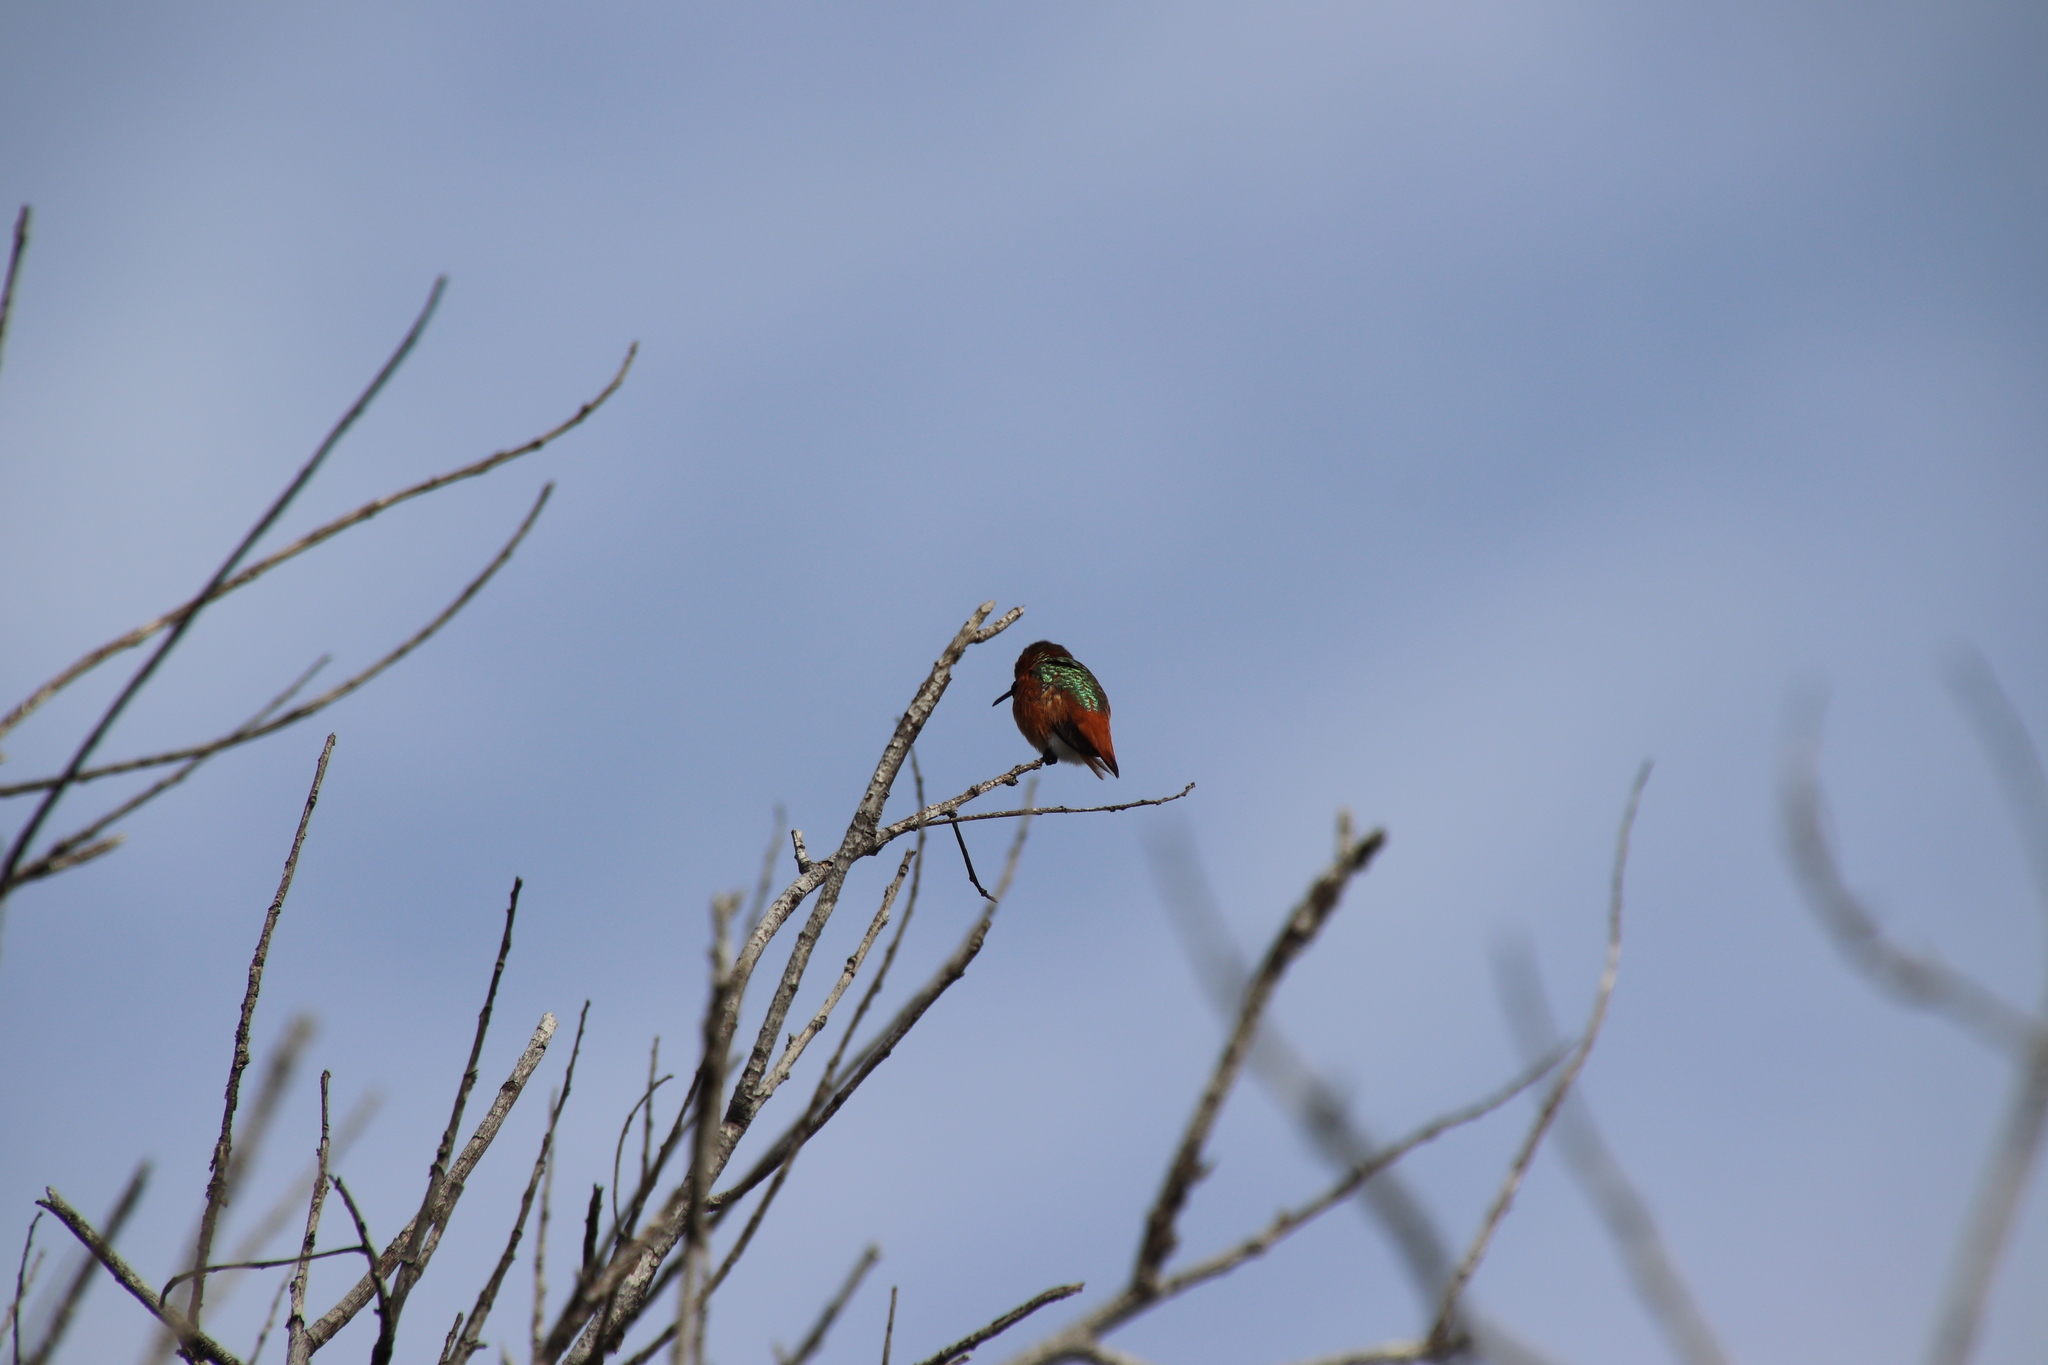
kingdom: Animalia
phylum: Chordata
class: Aves
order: Apodiformes
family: Trochilidae
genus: Selasphorus
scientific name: Selasphorus sasin
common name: Allen's hummingbird
